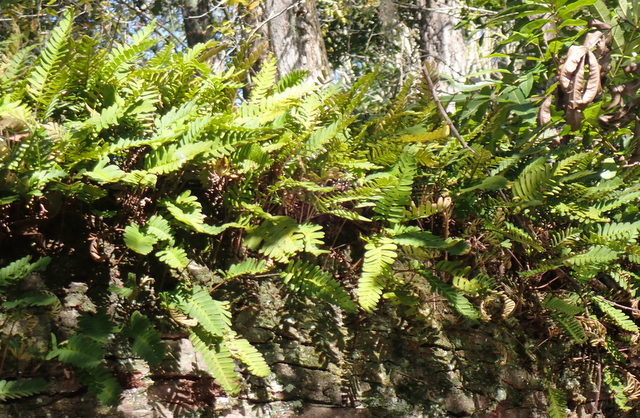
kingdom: Plantae
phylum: Tracheophyta
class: Polypodiopsida
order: Polypodiales
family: Polypodiaceae
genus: Pleopeltis
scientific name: Pleopeltis michauxiana
